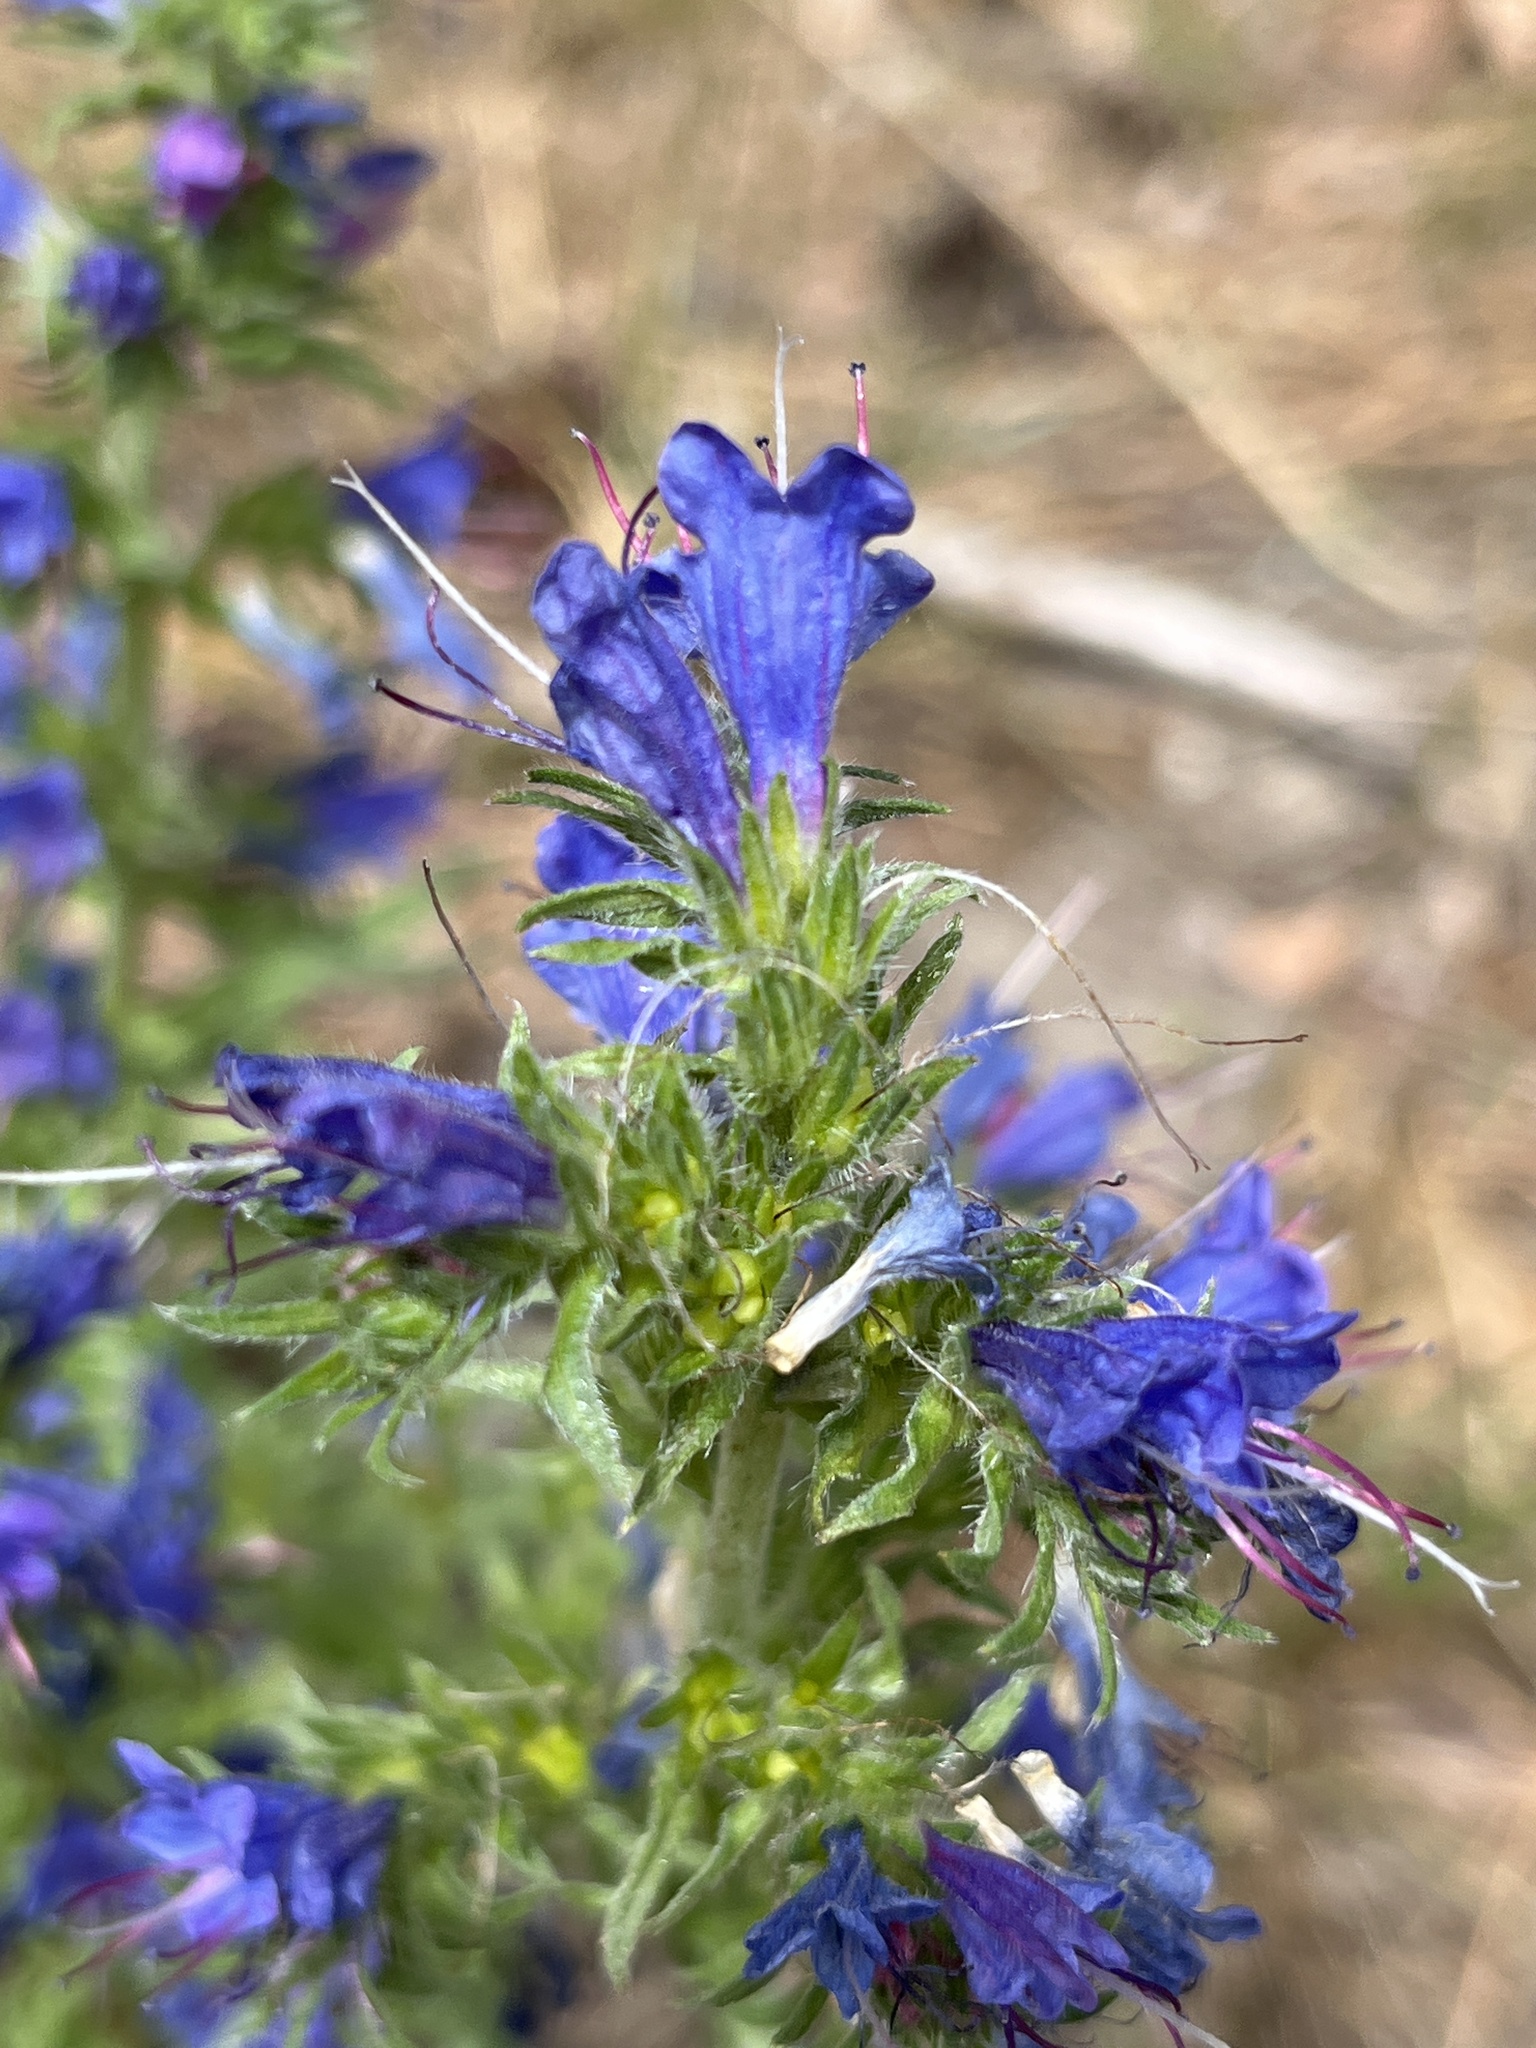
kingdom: Plantae
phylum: Tracheophyta
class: Magnoliopsida
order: Boraginales
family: Boraginaceae
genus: Echium
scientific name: Echium vulgare
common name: Common viper's bugloss
